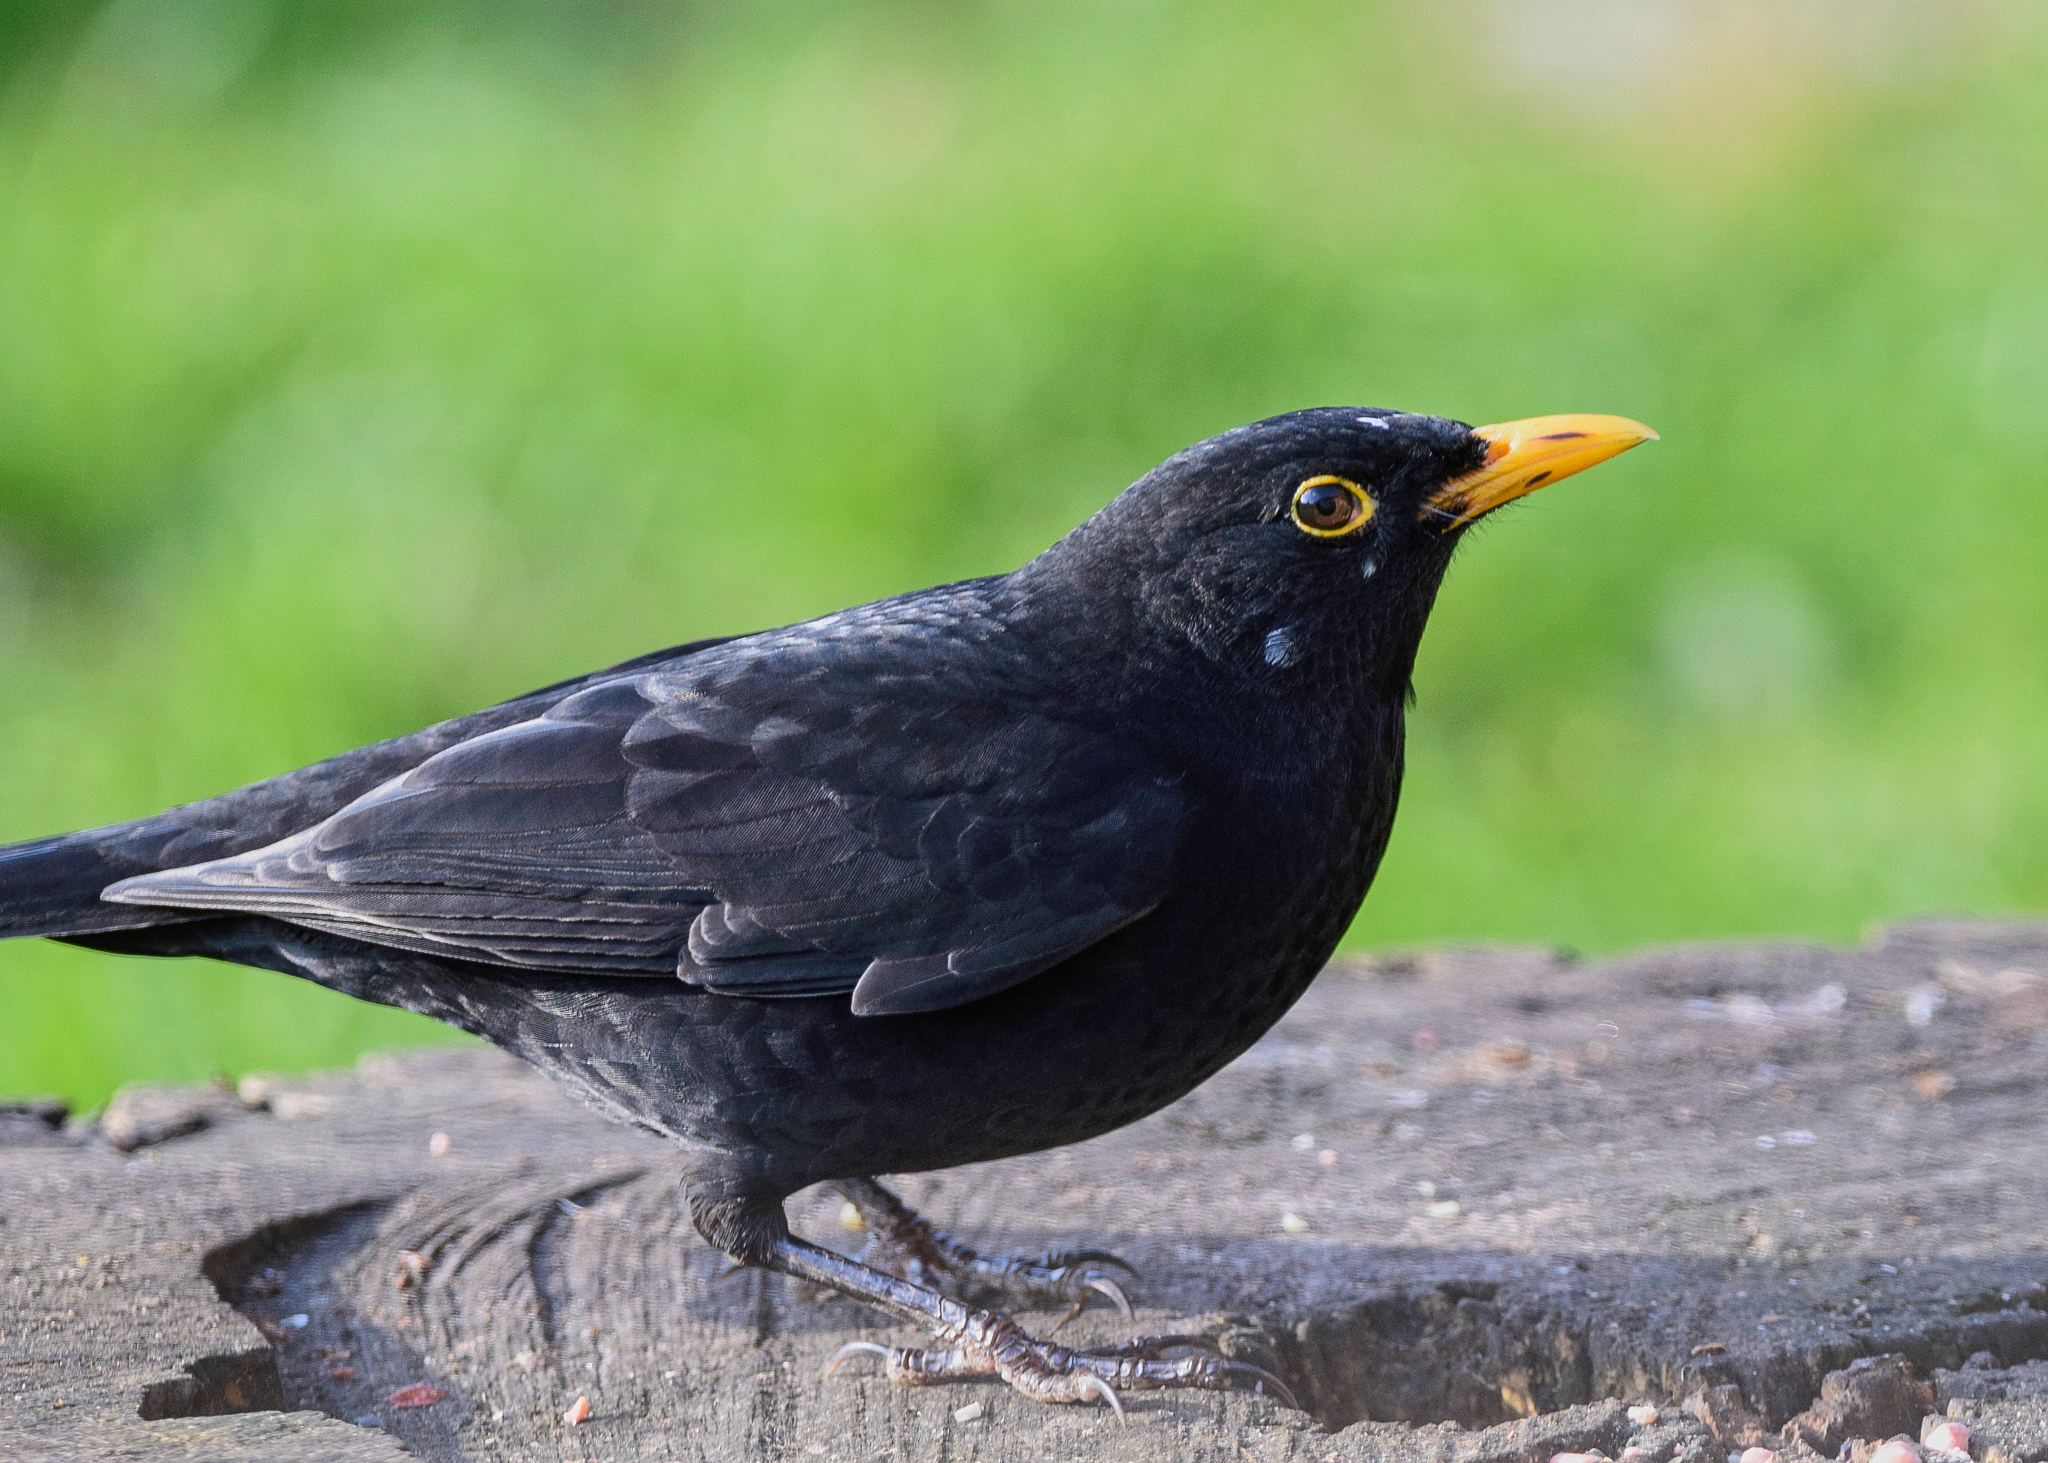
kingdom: Animalia
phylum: Chordata
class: Aves
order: Passeriformes
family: Turdidae
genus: Turdus
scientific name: Turdus merula
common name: Common blackbird
